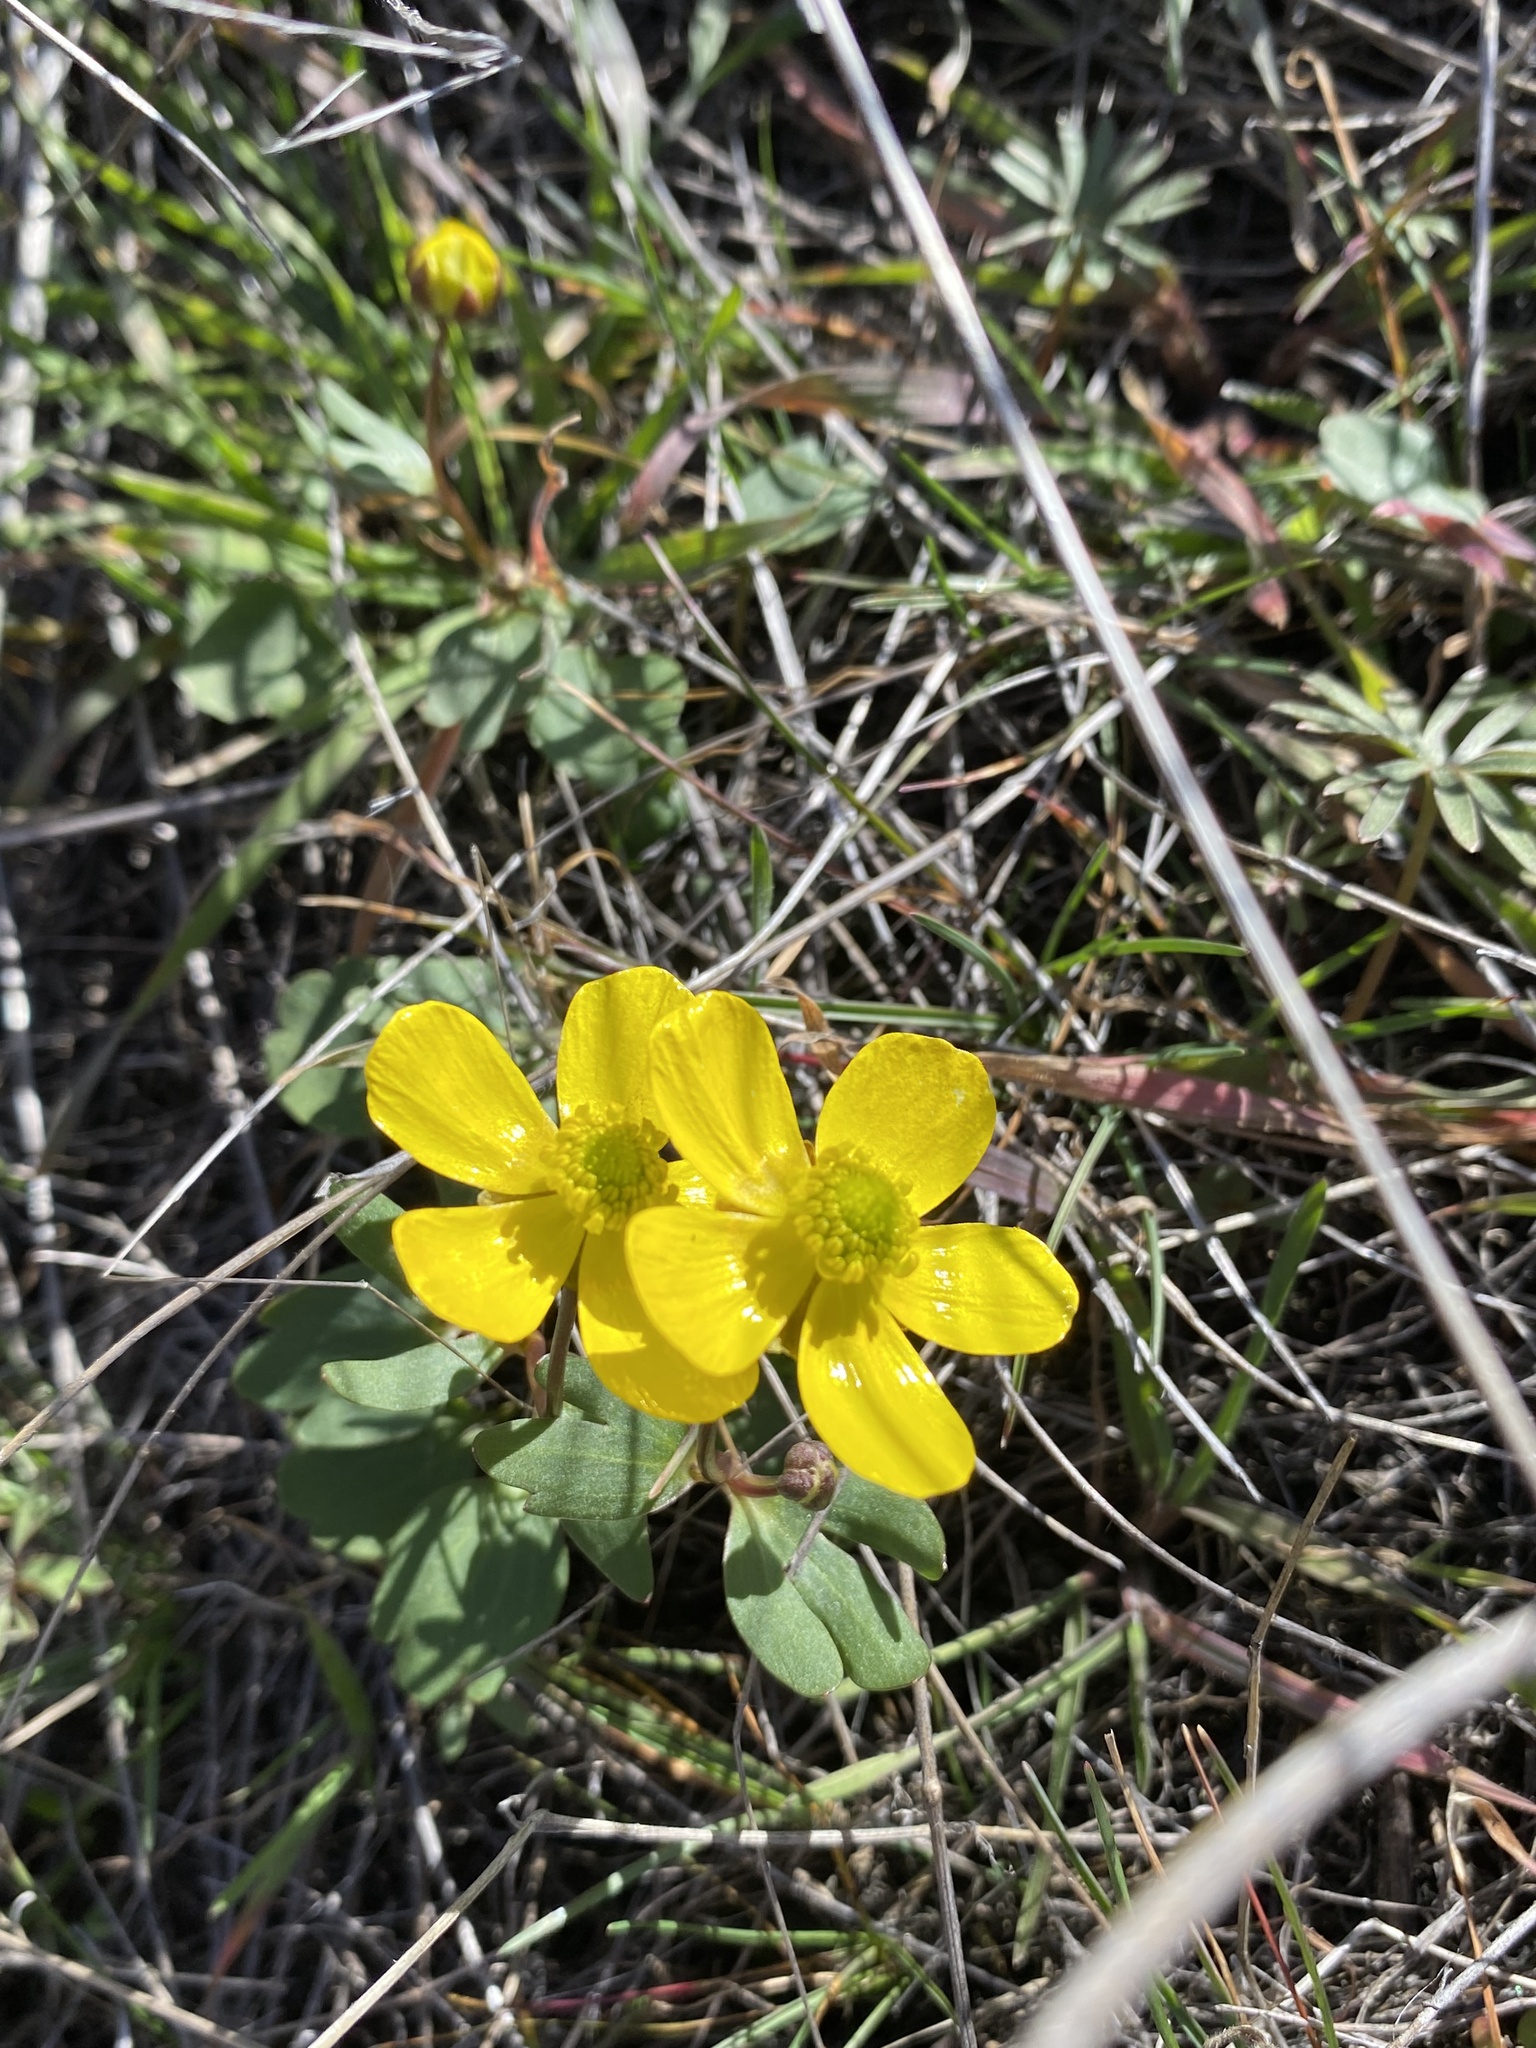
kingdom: Plantae
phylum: Tracheophyta
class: Magnoliopsida
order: Ranunculales
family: Ranunculaceae
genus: Ranunculus
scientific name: Ranunculus glaberrimus
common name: Sagebrush buttercup
